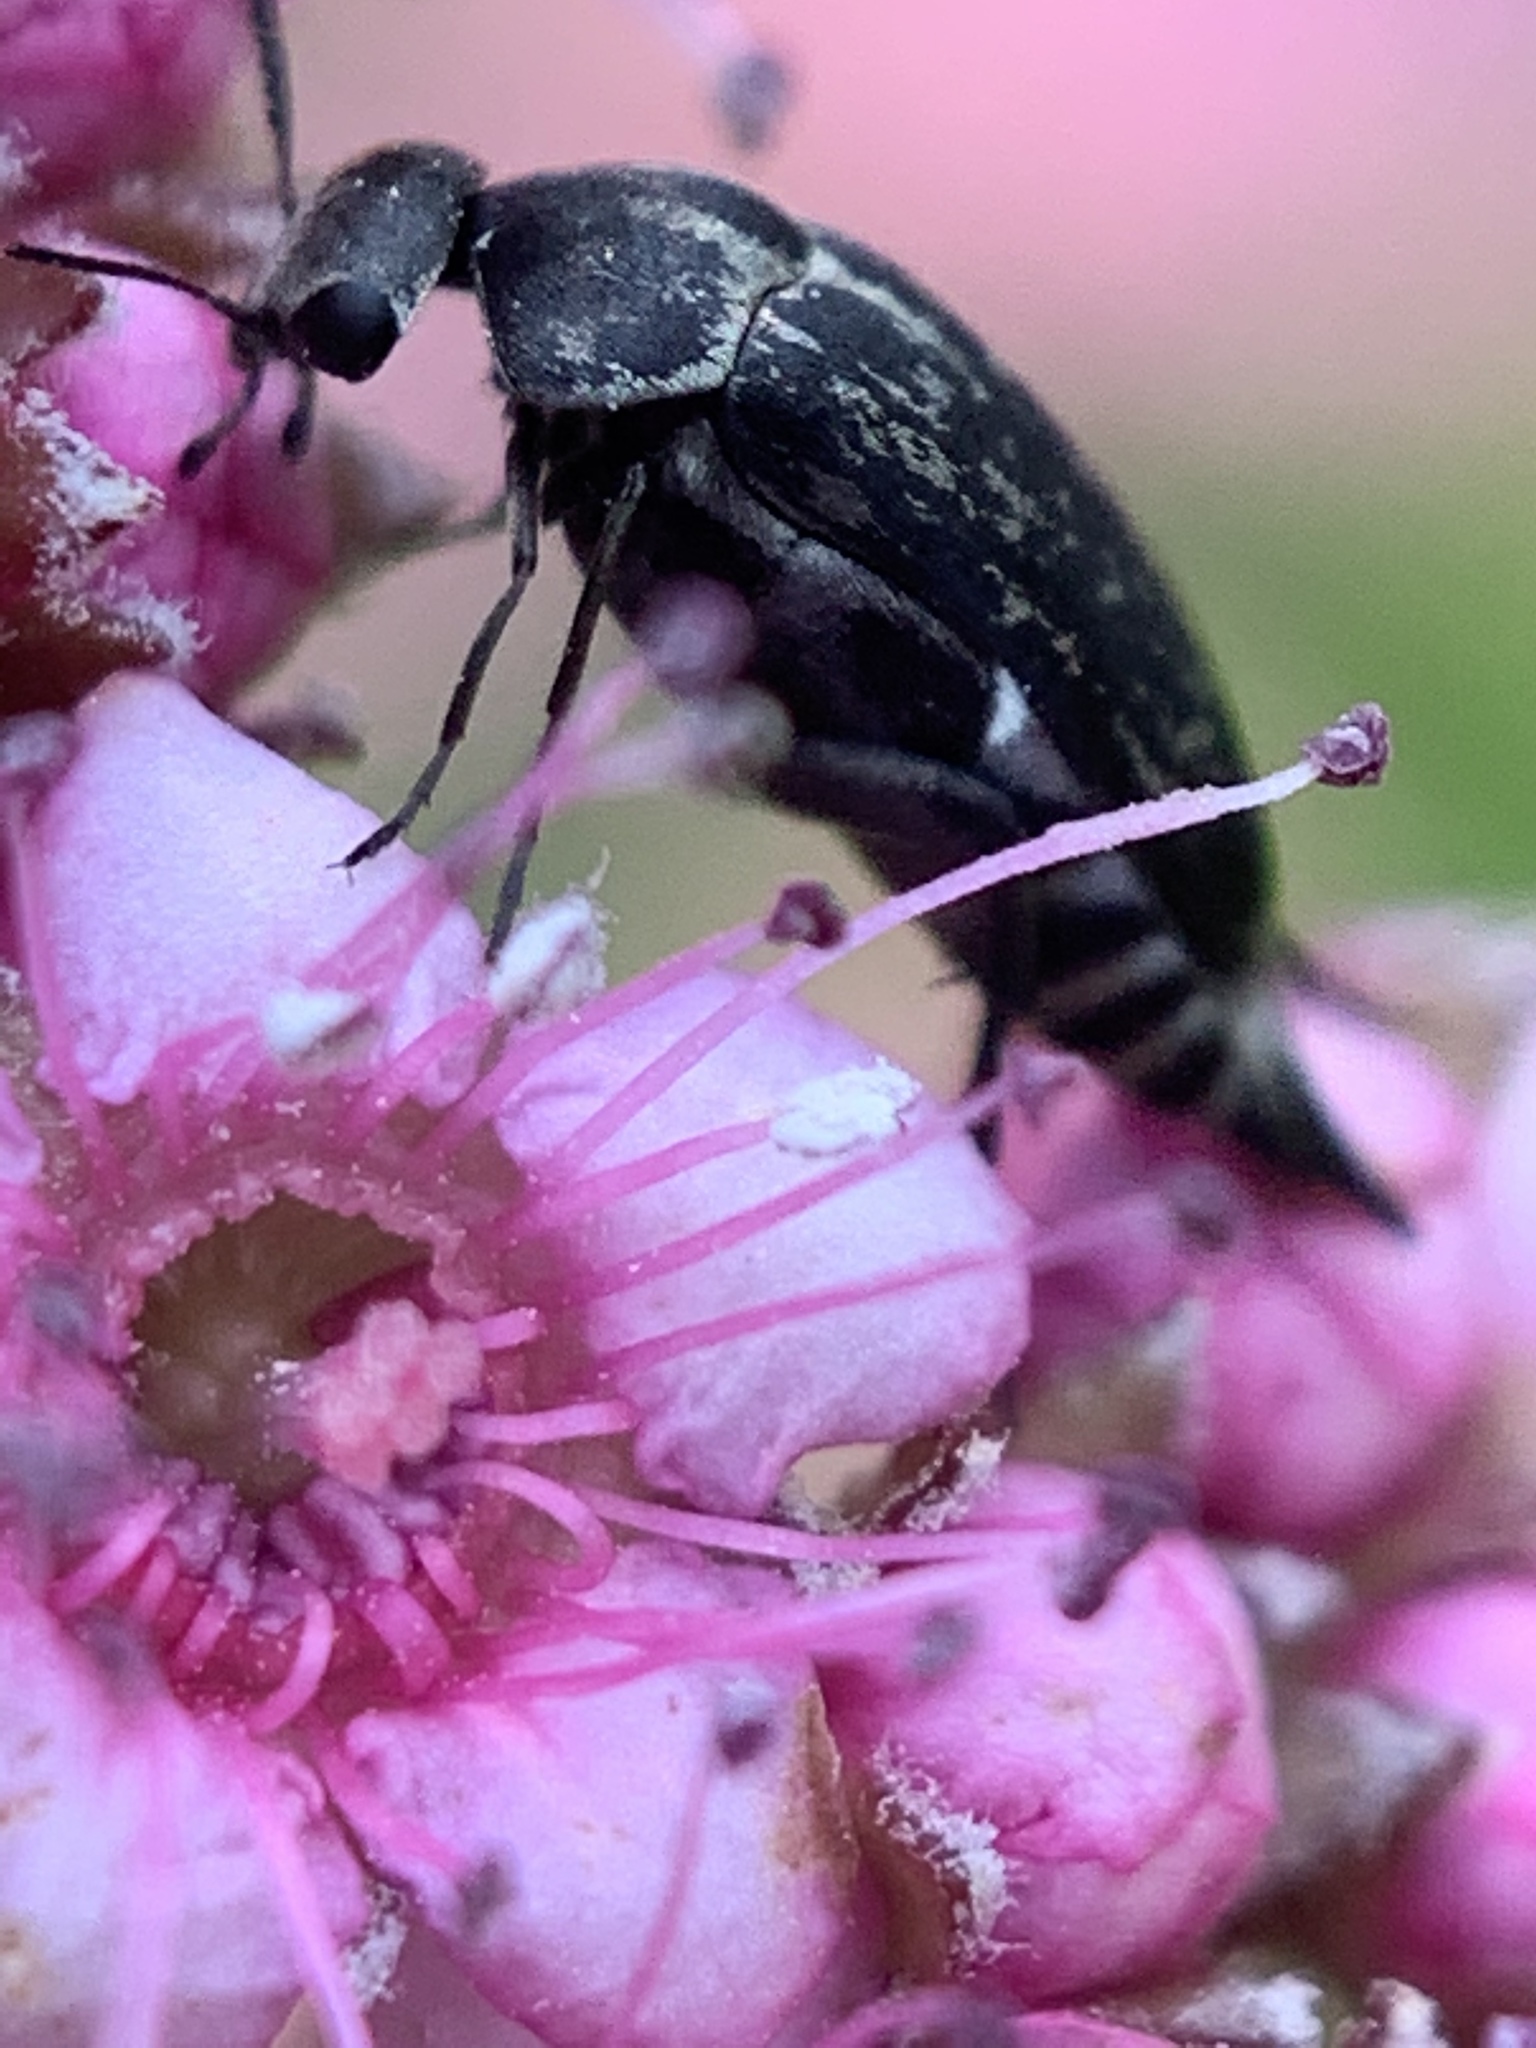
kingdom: Animalia
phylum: Arthropoda
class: Insecta
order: Coleoptera
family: Mordellidae
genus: Mordella
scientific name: Mordella marginata
